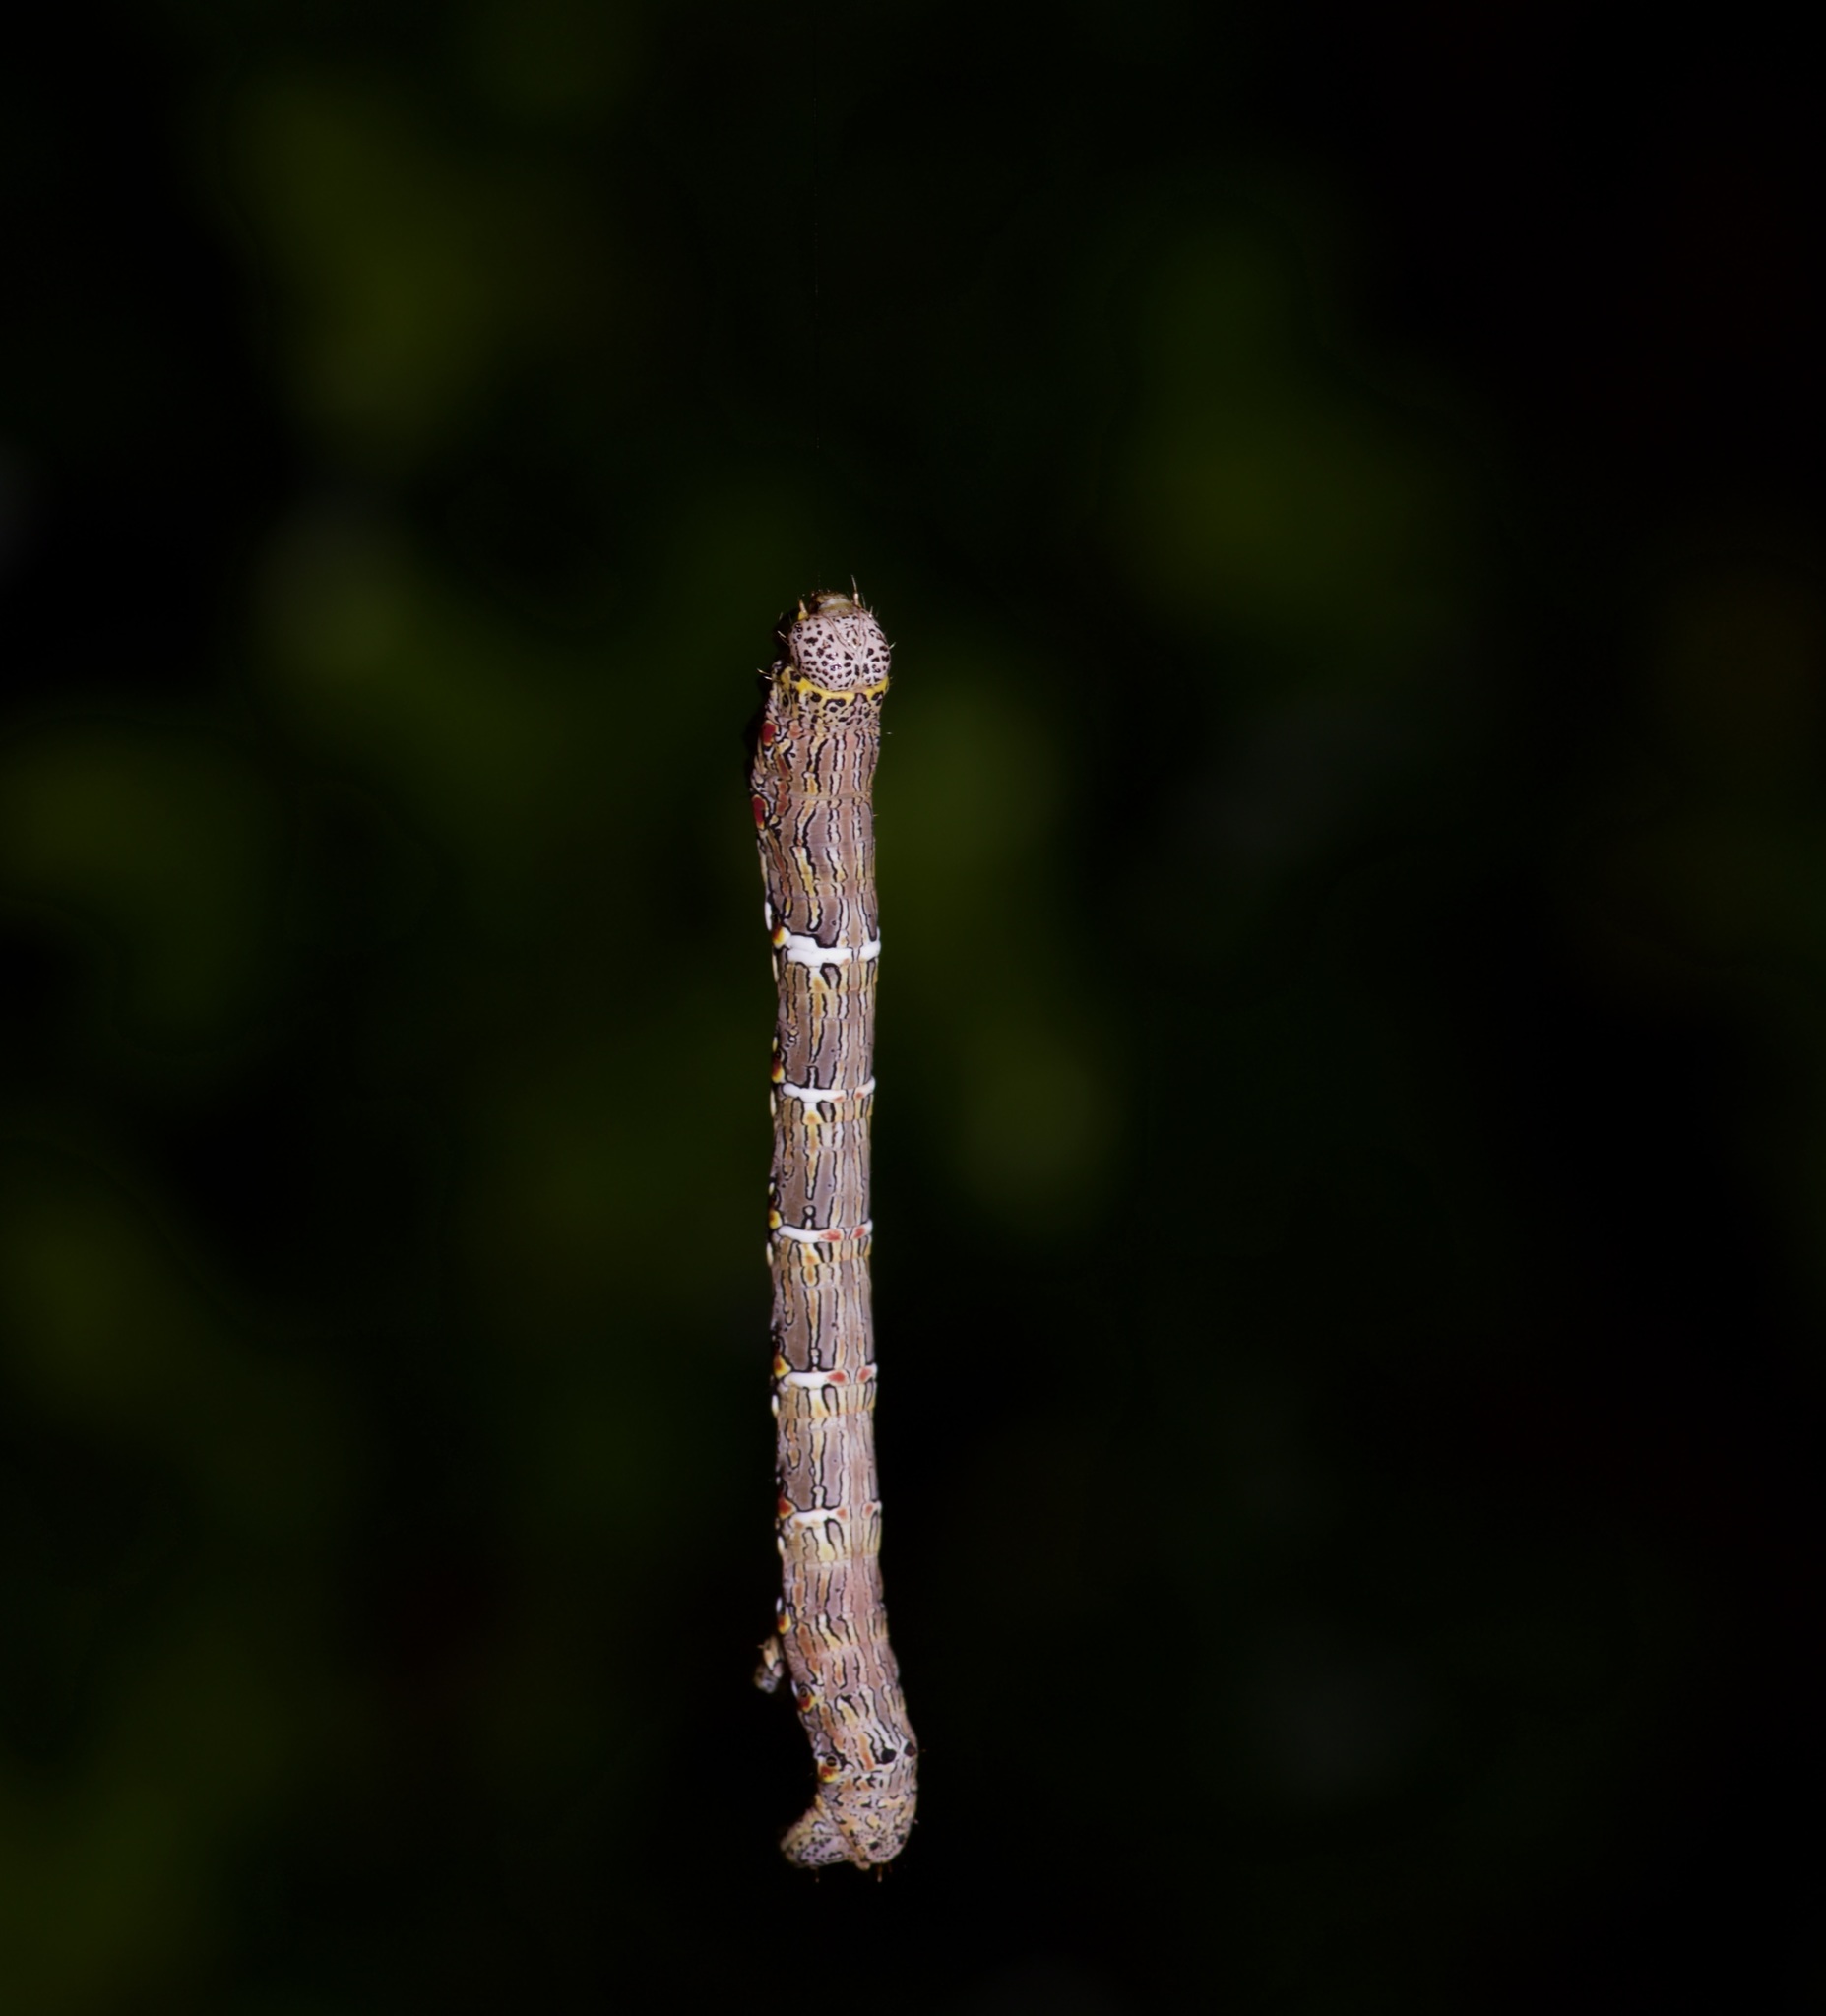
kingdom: Animalia
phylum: Arthropoda
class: Insecta
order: Lepidoptera
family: Geometridae
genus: Lycia
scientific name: Lycia ypsilon
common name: Wooly gray
